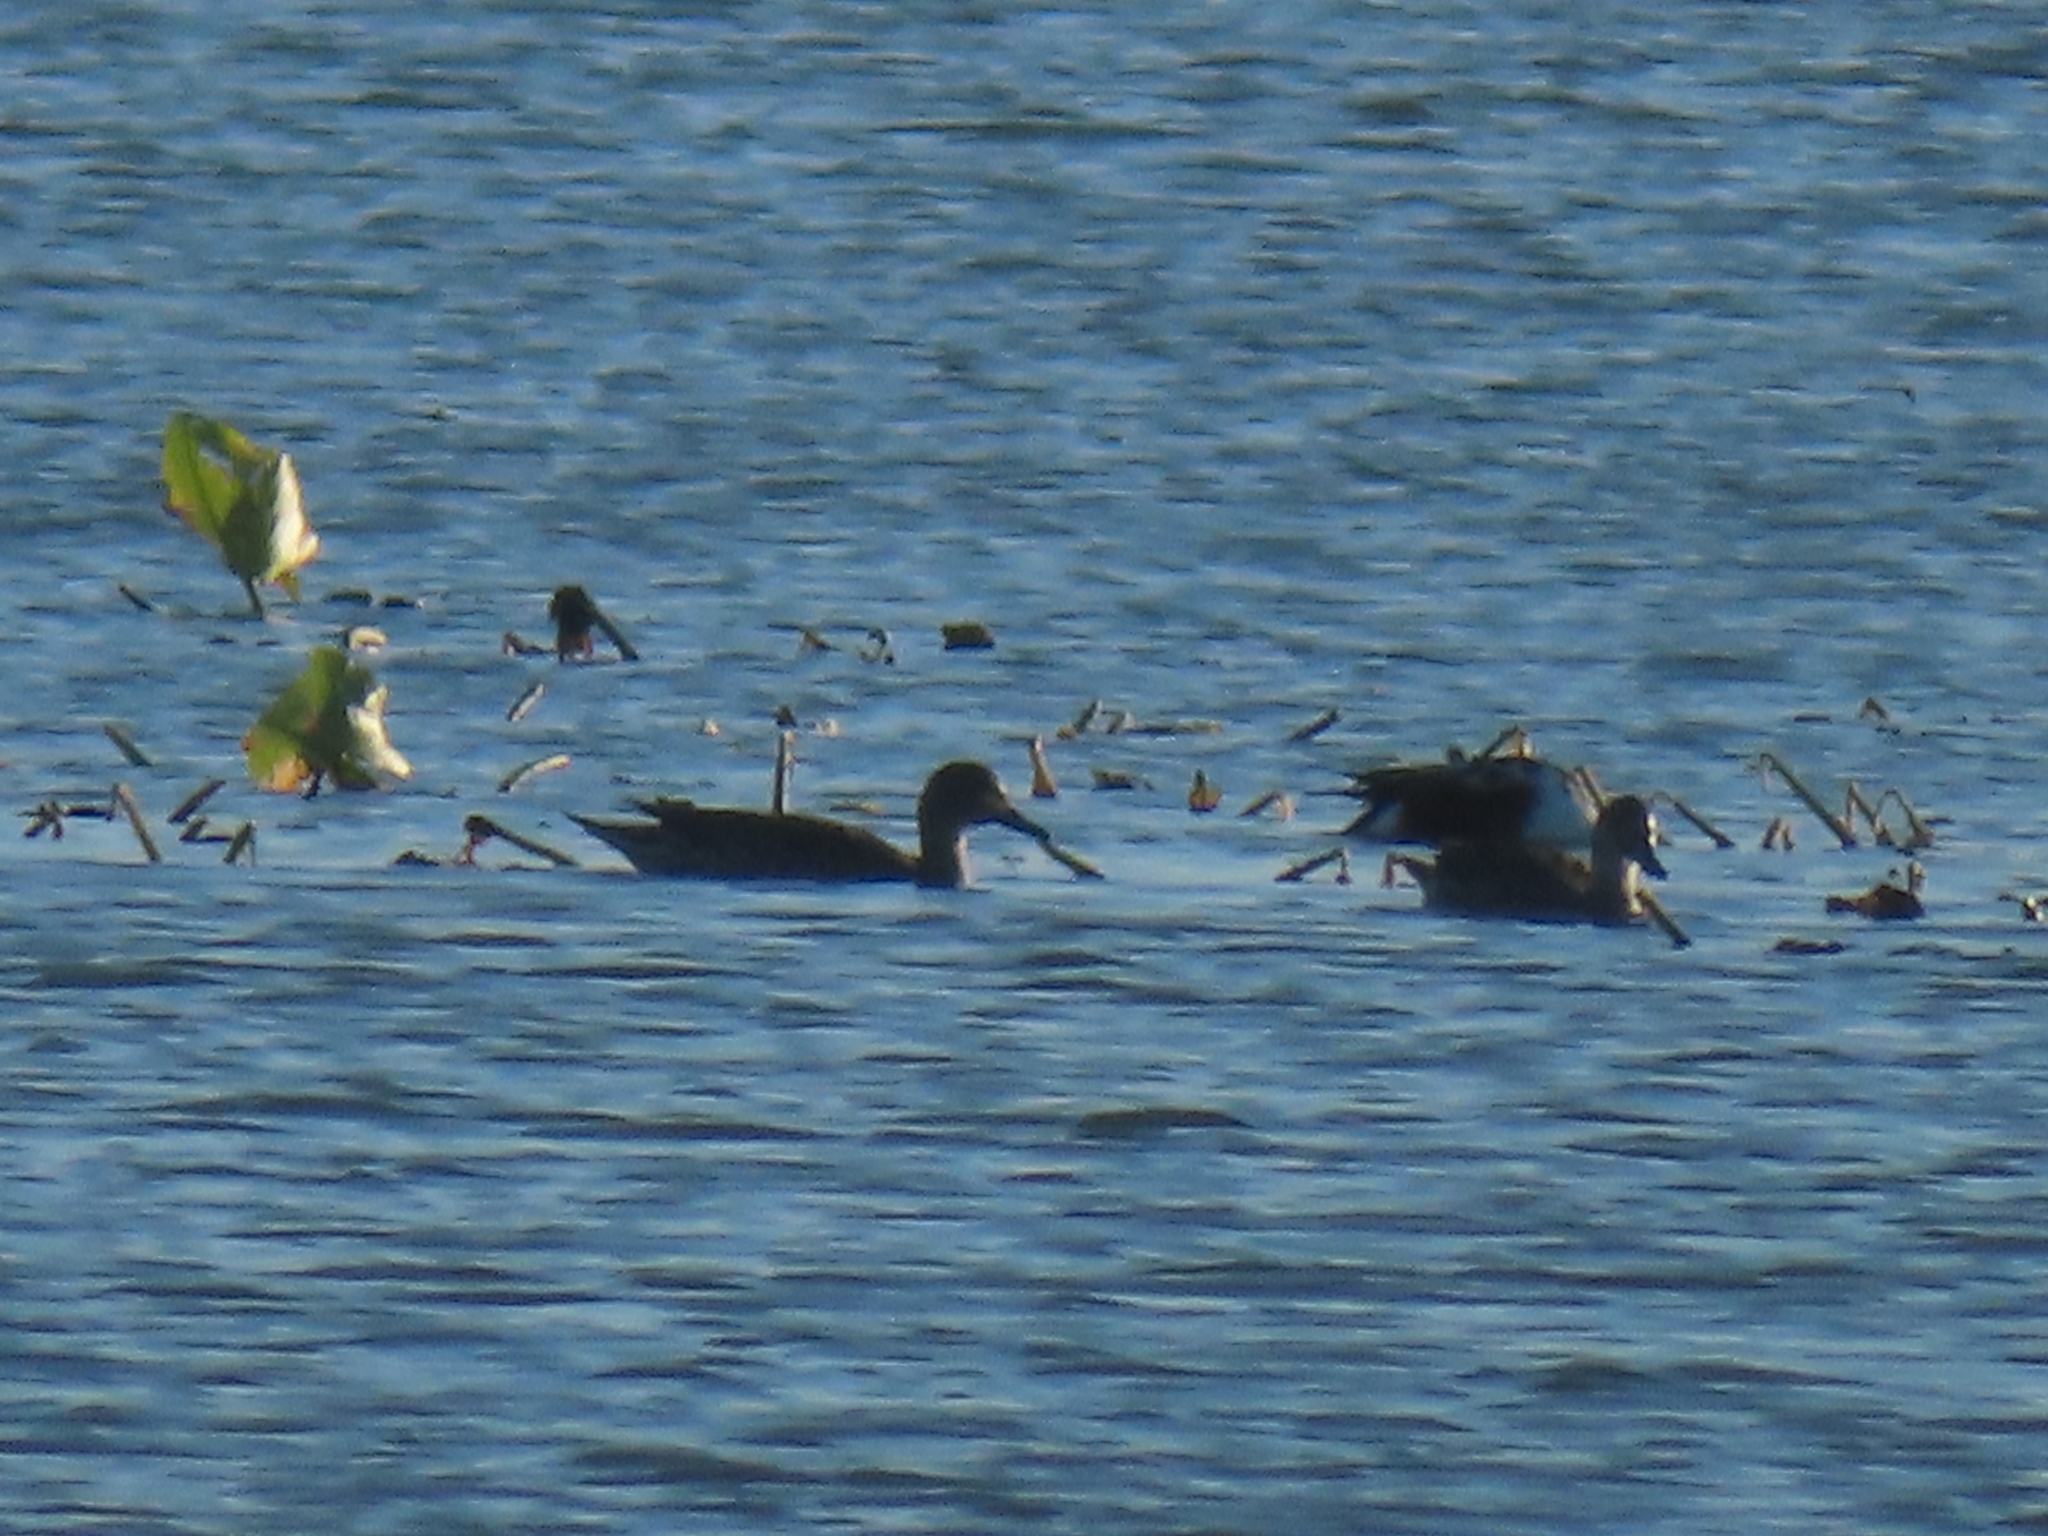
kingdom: Animalia
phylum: Chordata
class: Aves
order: Anseriformes
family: Anatidae
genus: Anas
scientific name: Anas acuta
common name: Northern pintail
